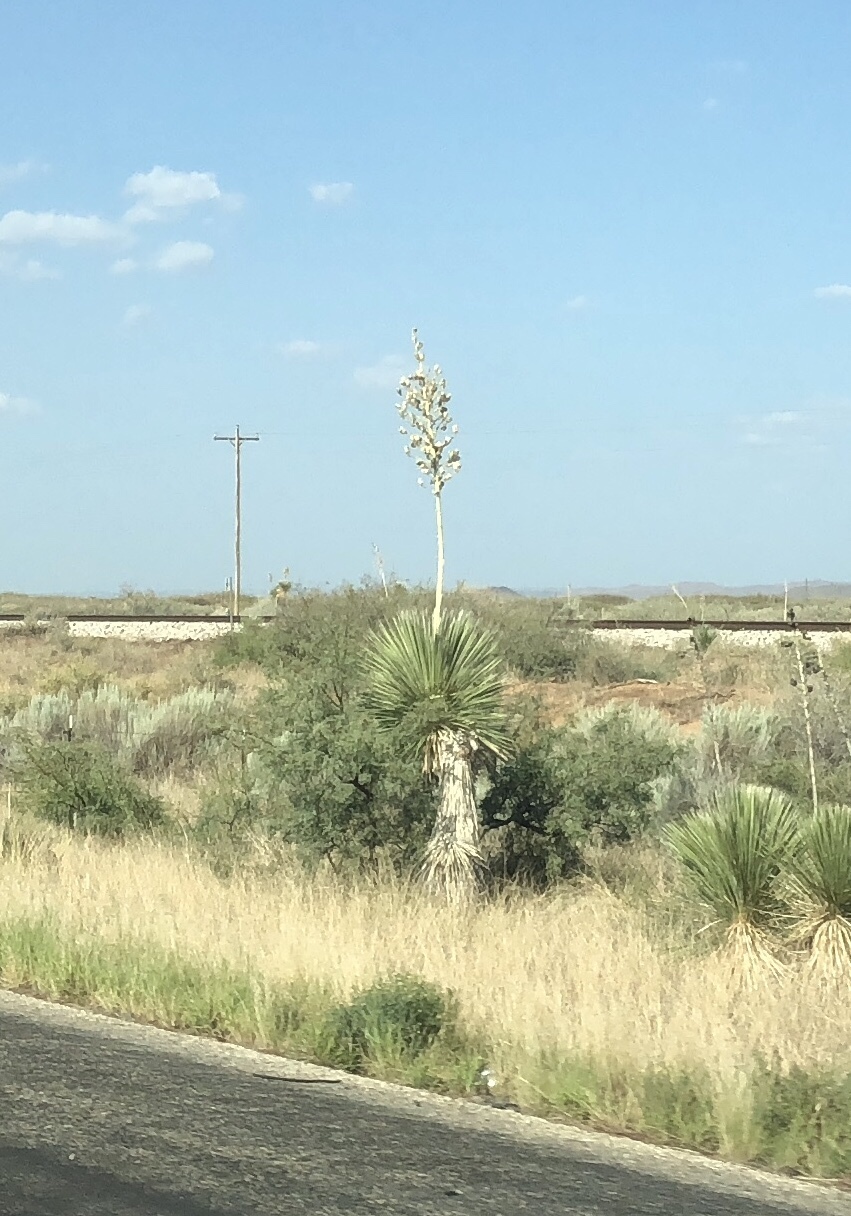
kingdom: Plantae
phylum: Tracheophyta
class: Liliopsida
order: Asparagales
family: Asparagaceae
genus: Yucca
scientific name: Yucca elata
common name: Palmella
